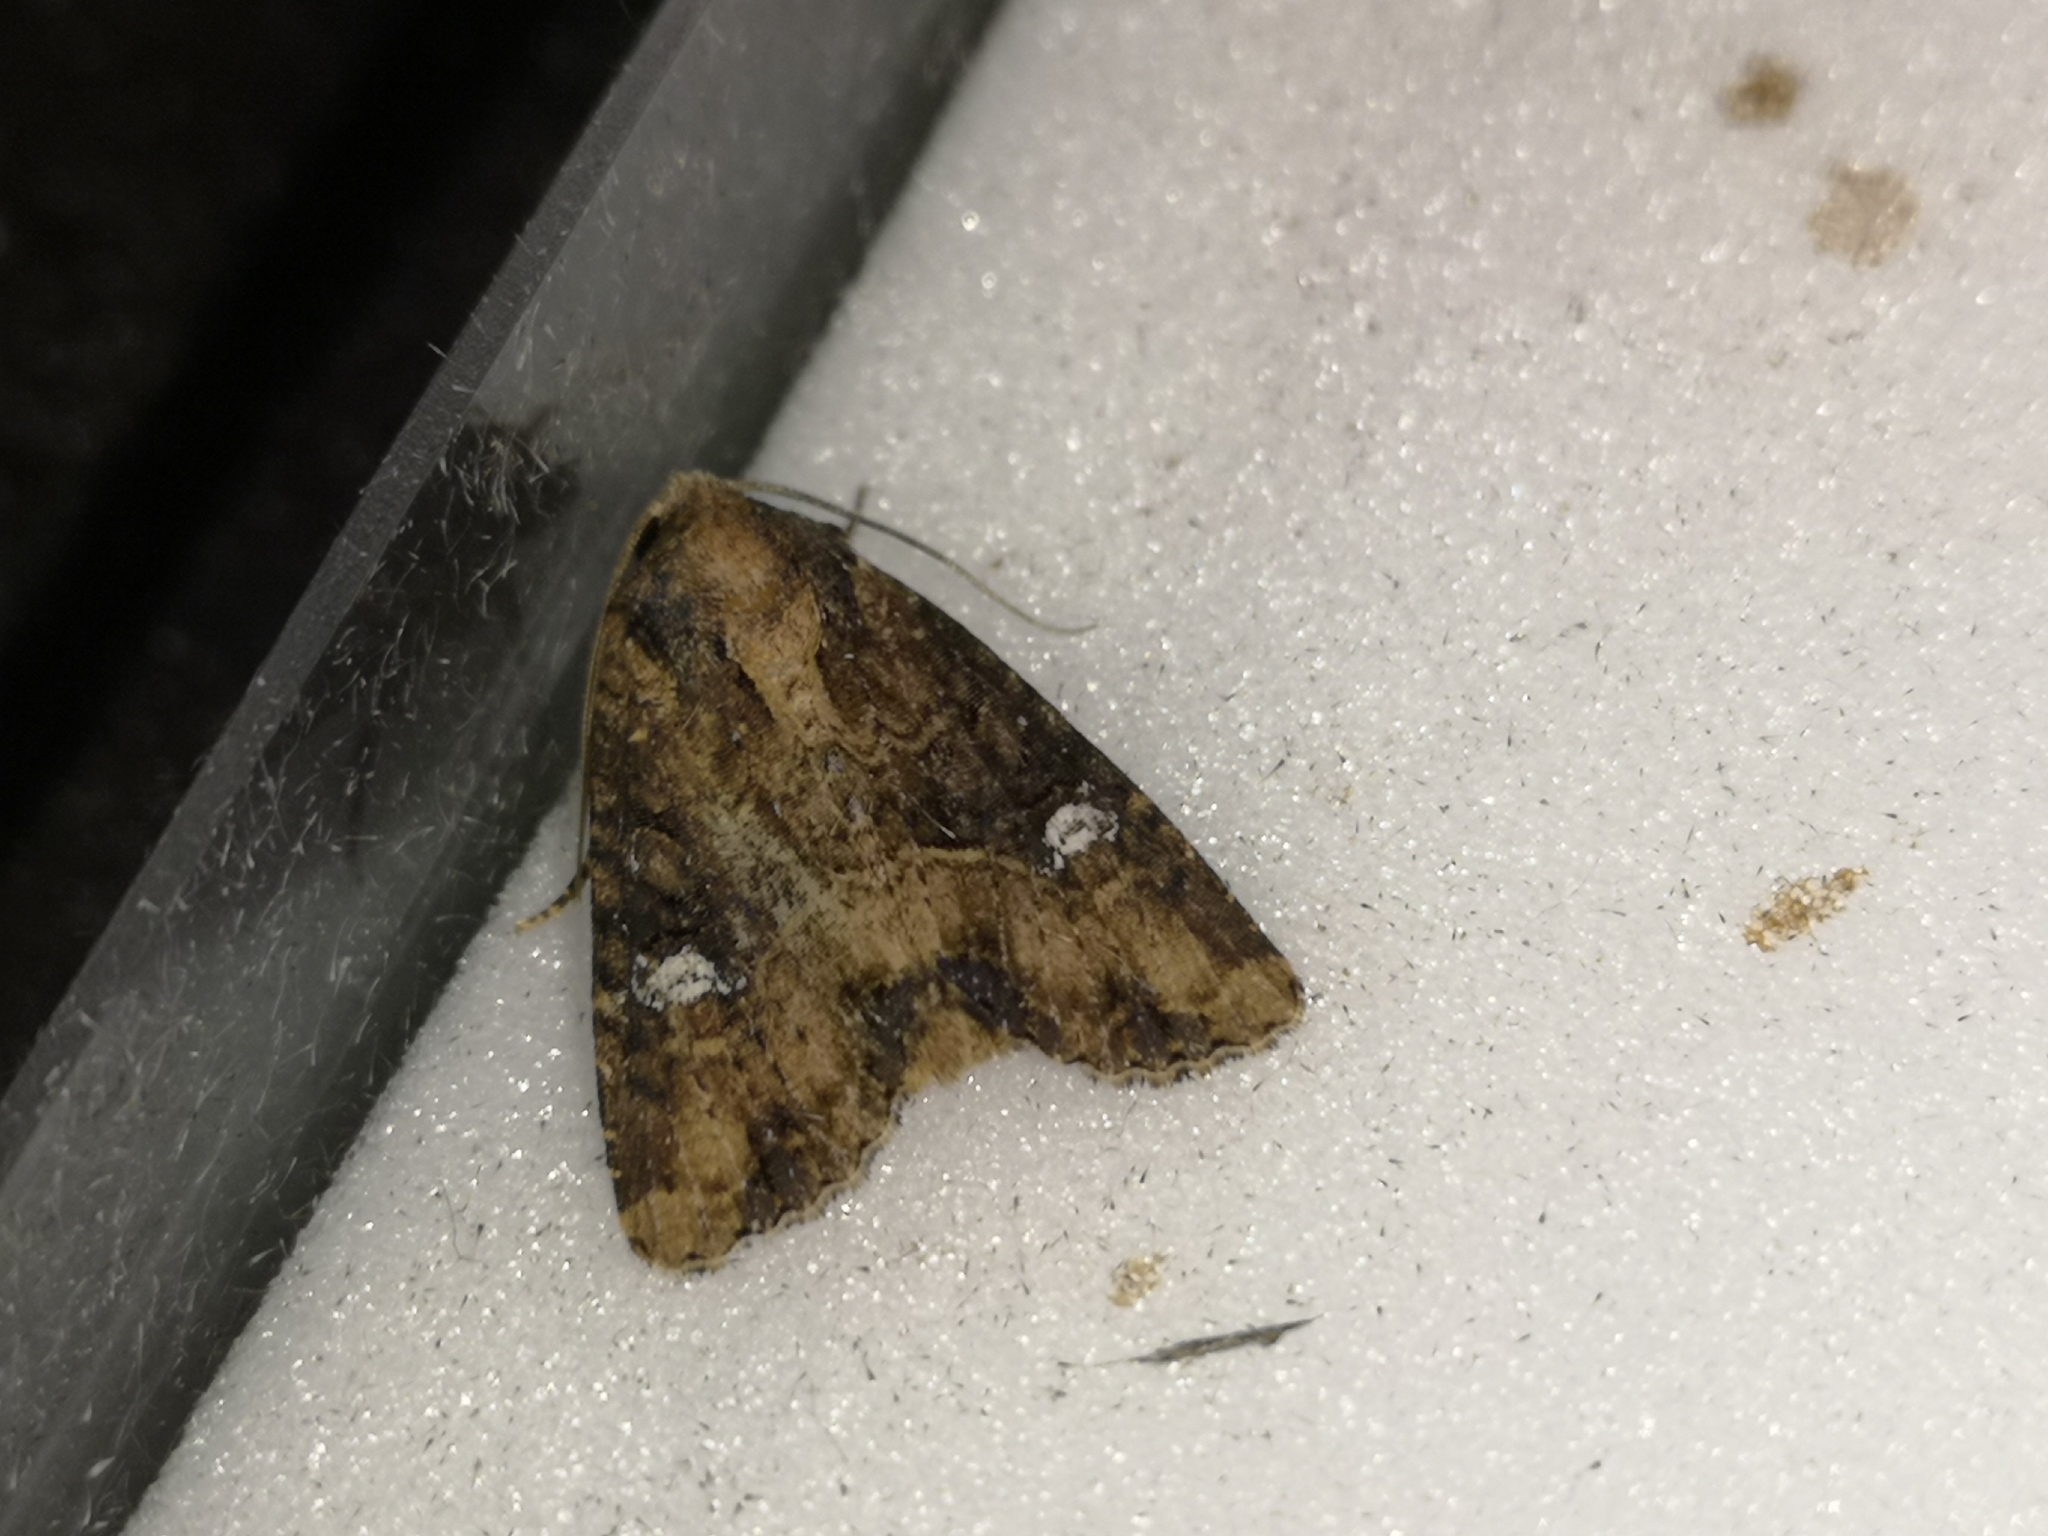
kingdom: Animalia
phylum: Arthropoda
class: Insecta
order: Lepidoptera
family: Noctuidae
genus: Mesapamea
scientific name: Mesapamea
